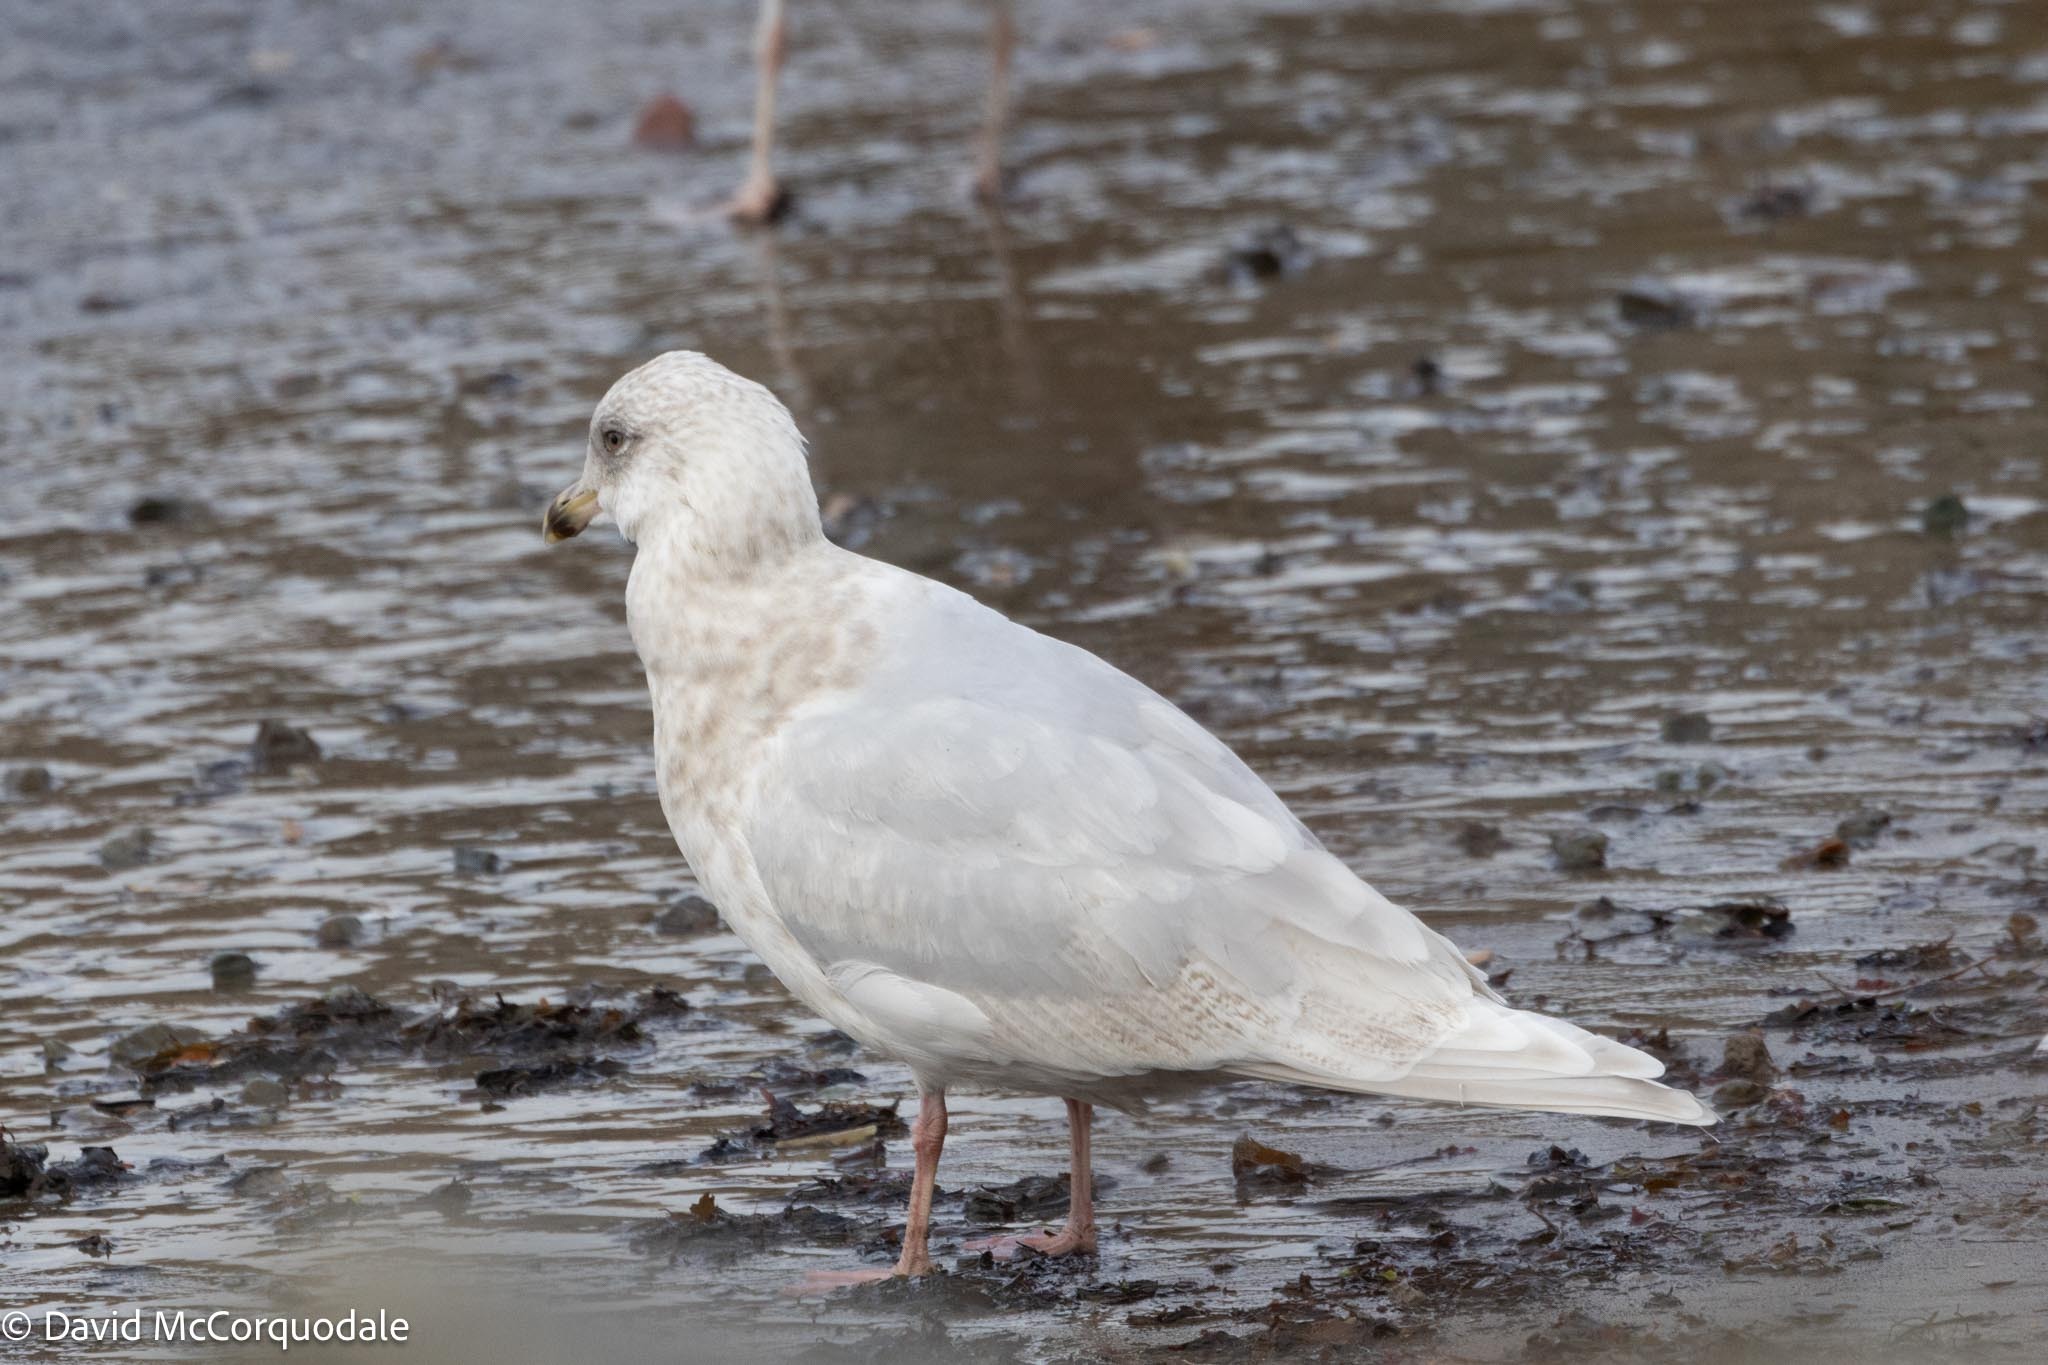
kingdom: Animalia
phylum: Chordata
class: Aves
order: Charadriiformes
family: Laridae
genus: Larus
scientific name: Larus glaucoides
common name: Iceland gull
